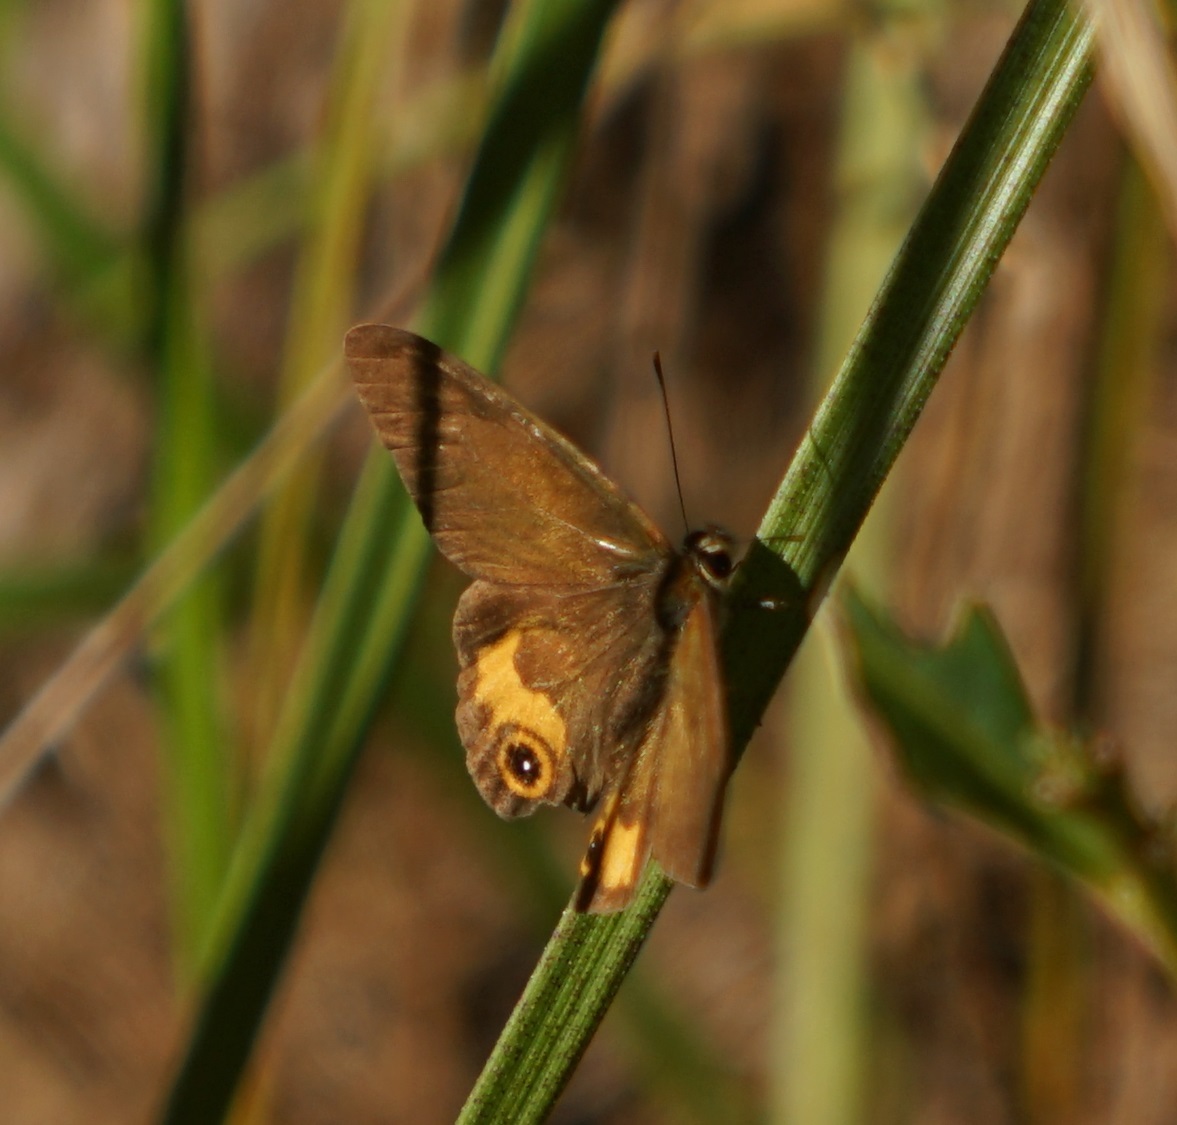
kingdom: Animalia
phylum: Arthropoda
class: Insecta
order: Lepidoptera
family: Nymphalidae
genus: Hypocysta
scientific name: Hypocysta metirius
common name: Brown ringlet
